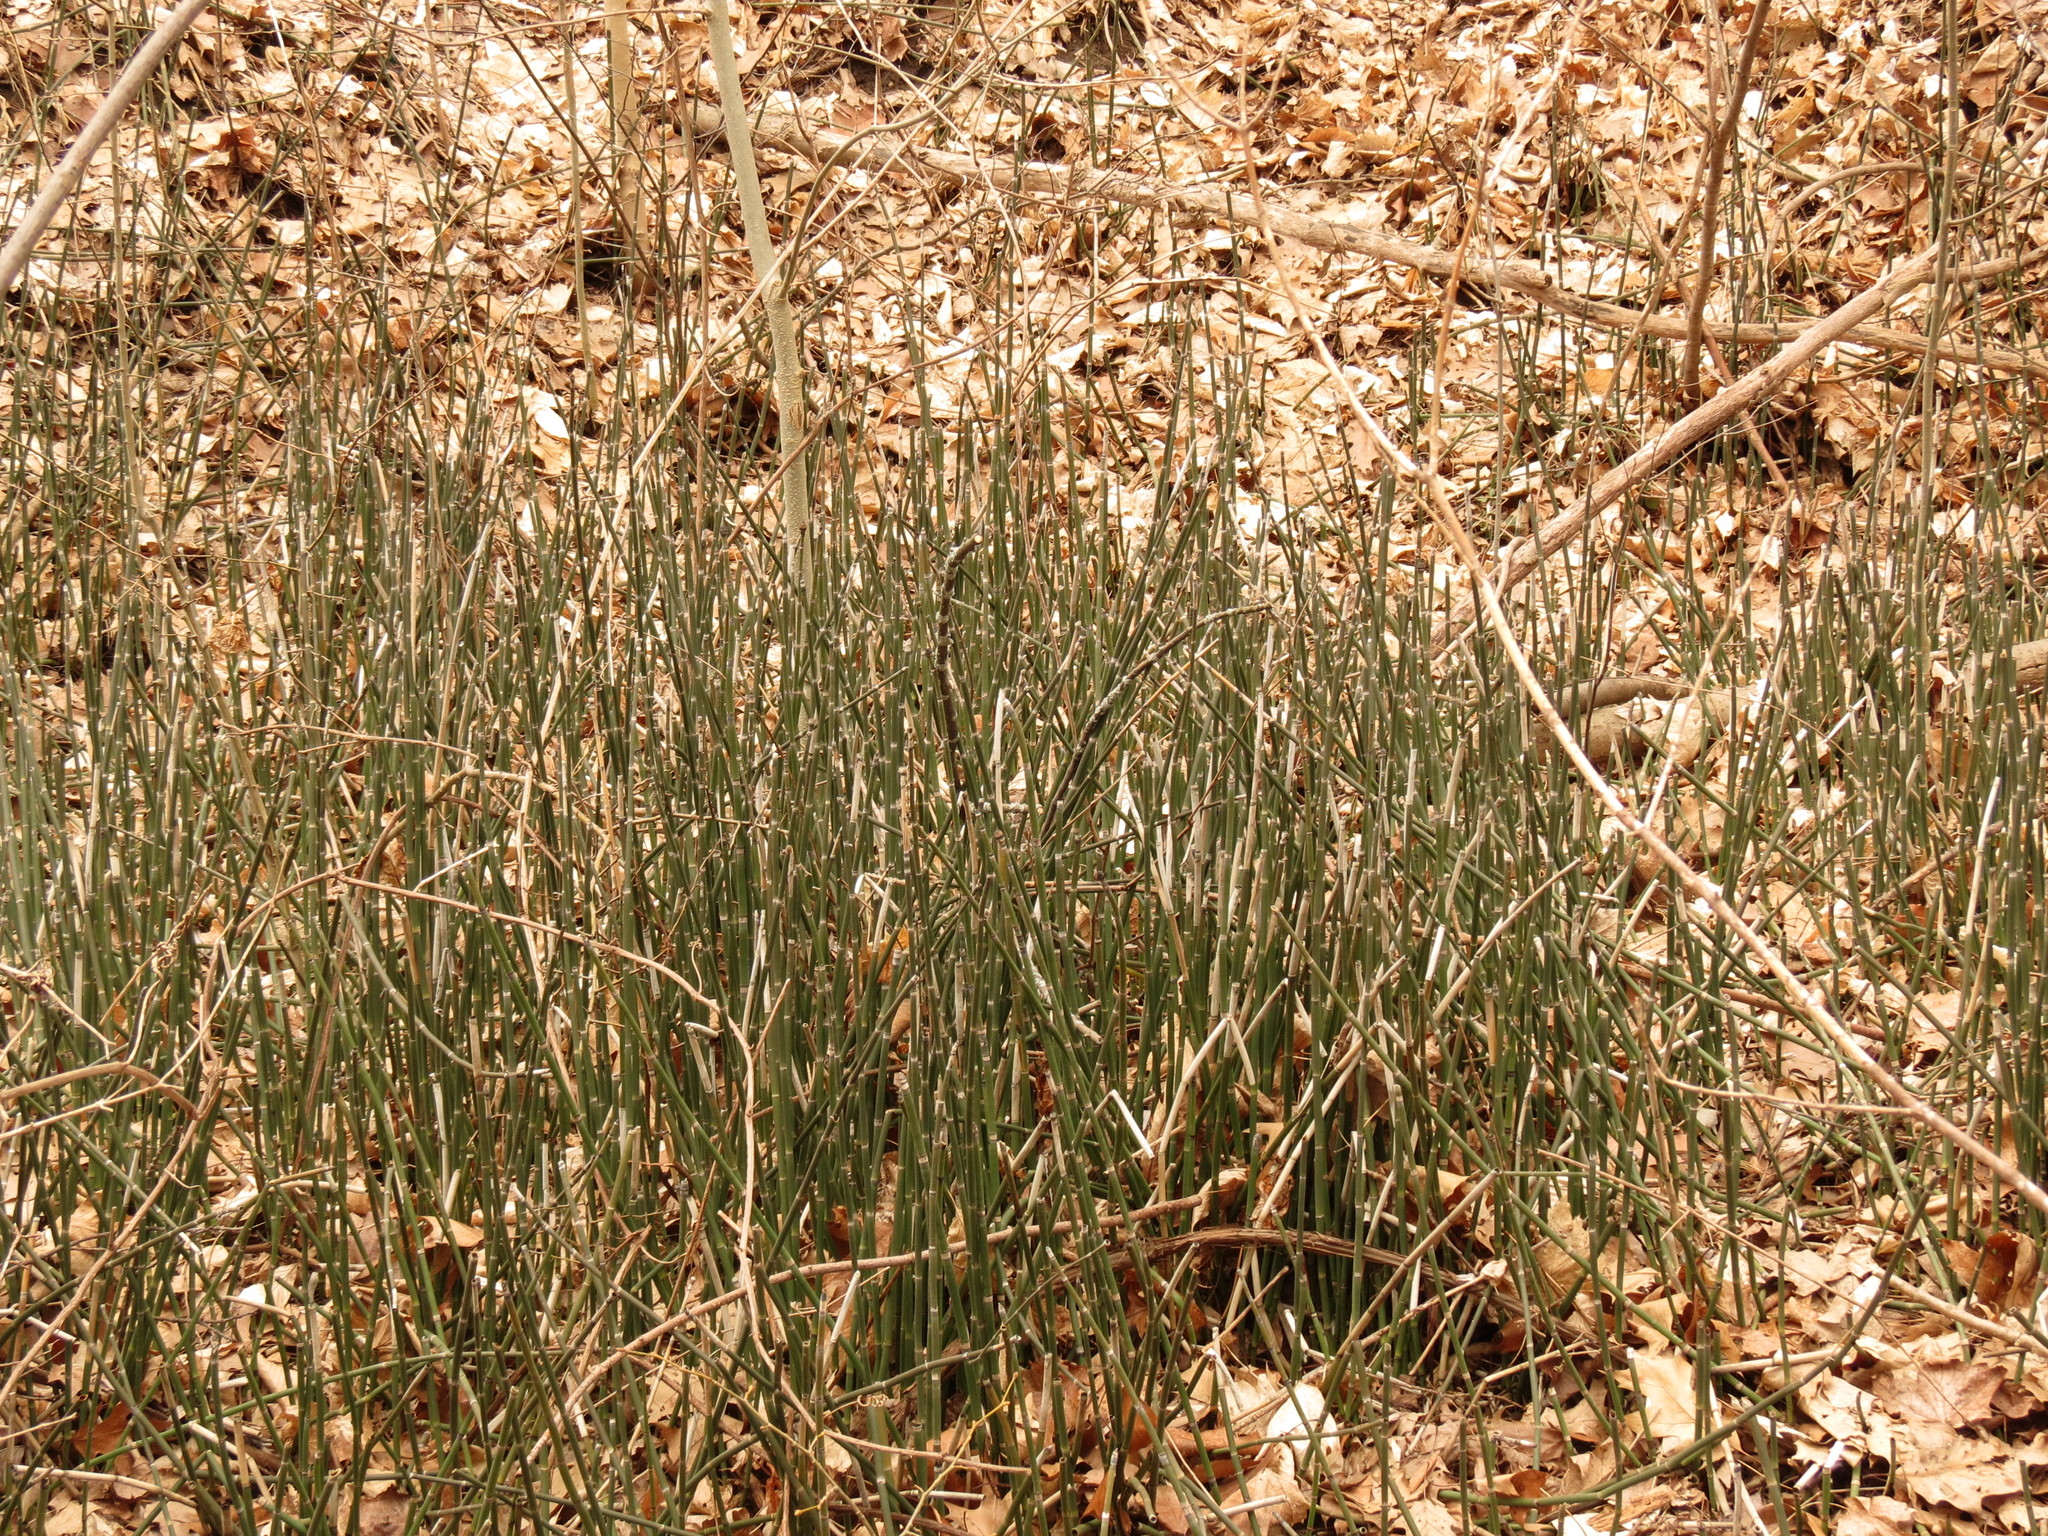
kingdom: Plantae
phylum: Tracheophyta
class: Polypodiopsida
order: Equisetales
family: Equisetaceae
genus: Equisetum
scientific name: Equisetum hyemale
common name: Rough horsetail
